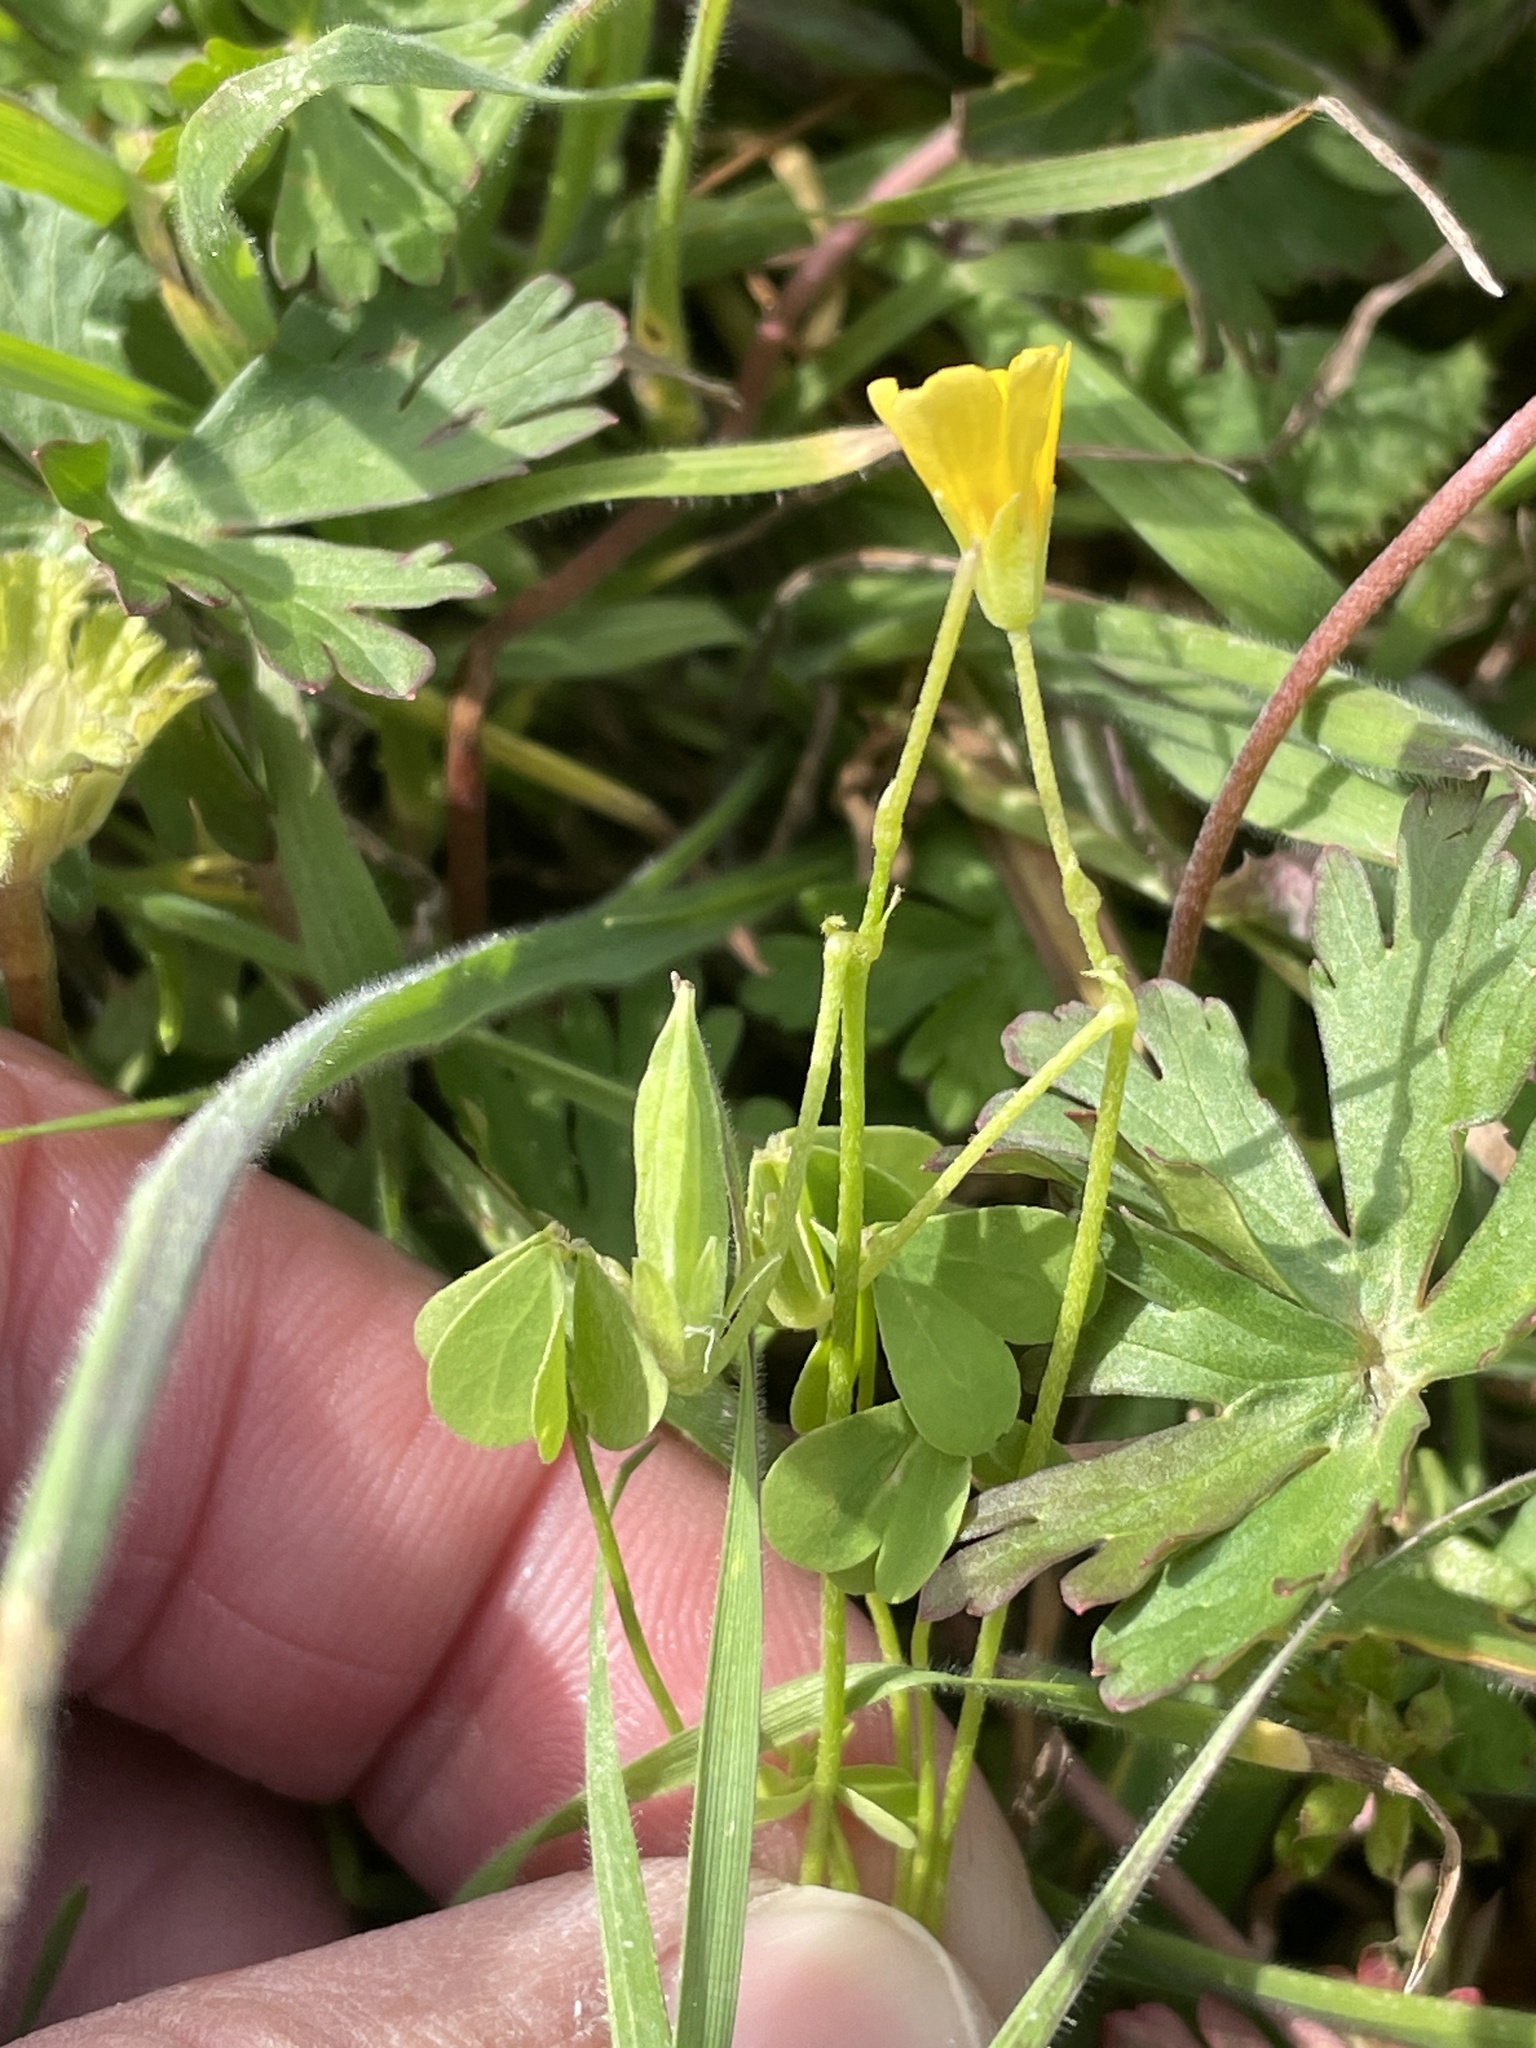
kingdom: Plantae
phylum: Tracheophyta
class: Magnoliopsida
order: Oxalidales
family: Oxalidaceae
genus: Oxalis
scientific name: Oxalis dillenii
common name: Sussex yellow-sorrel
